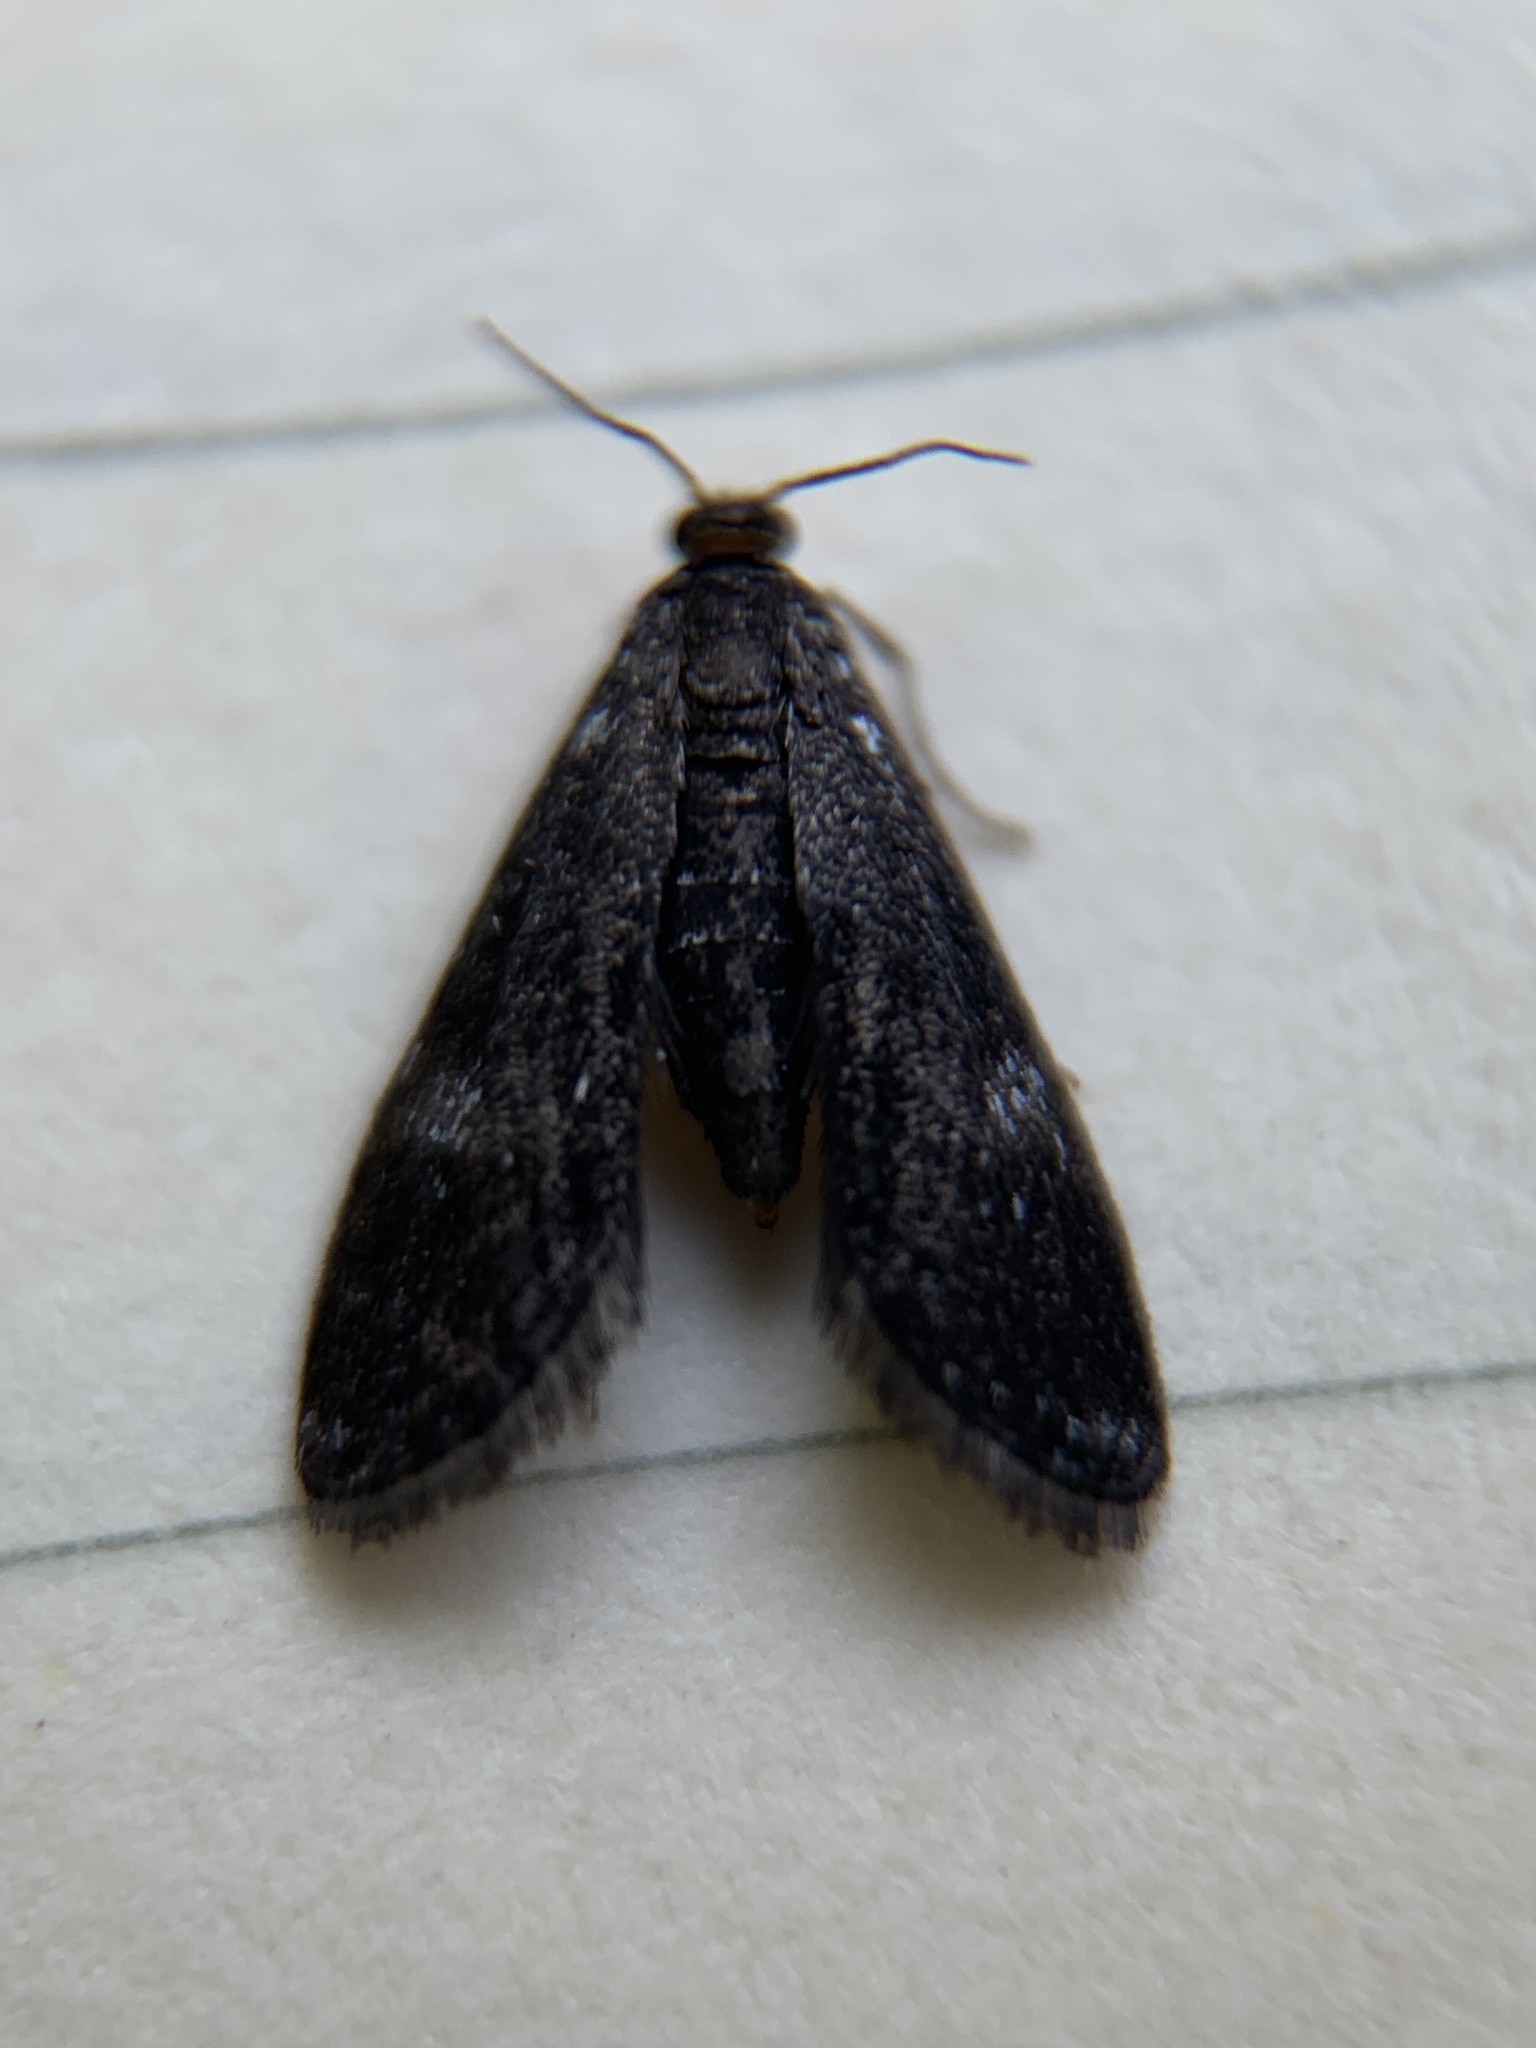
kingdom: Animalia
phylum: Arthropoda
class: Insecta
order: Lepidoptera
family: Crambidae
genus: Elophila
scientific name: Elophila tinealis
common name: Black duckweed moth
